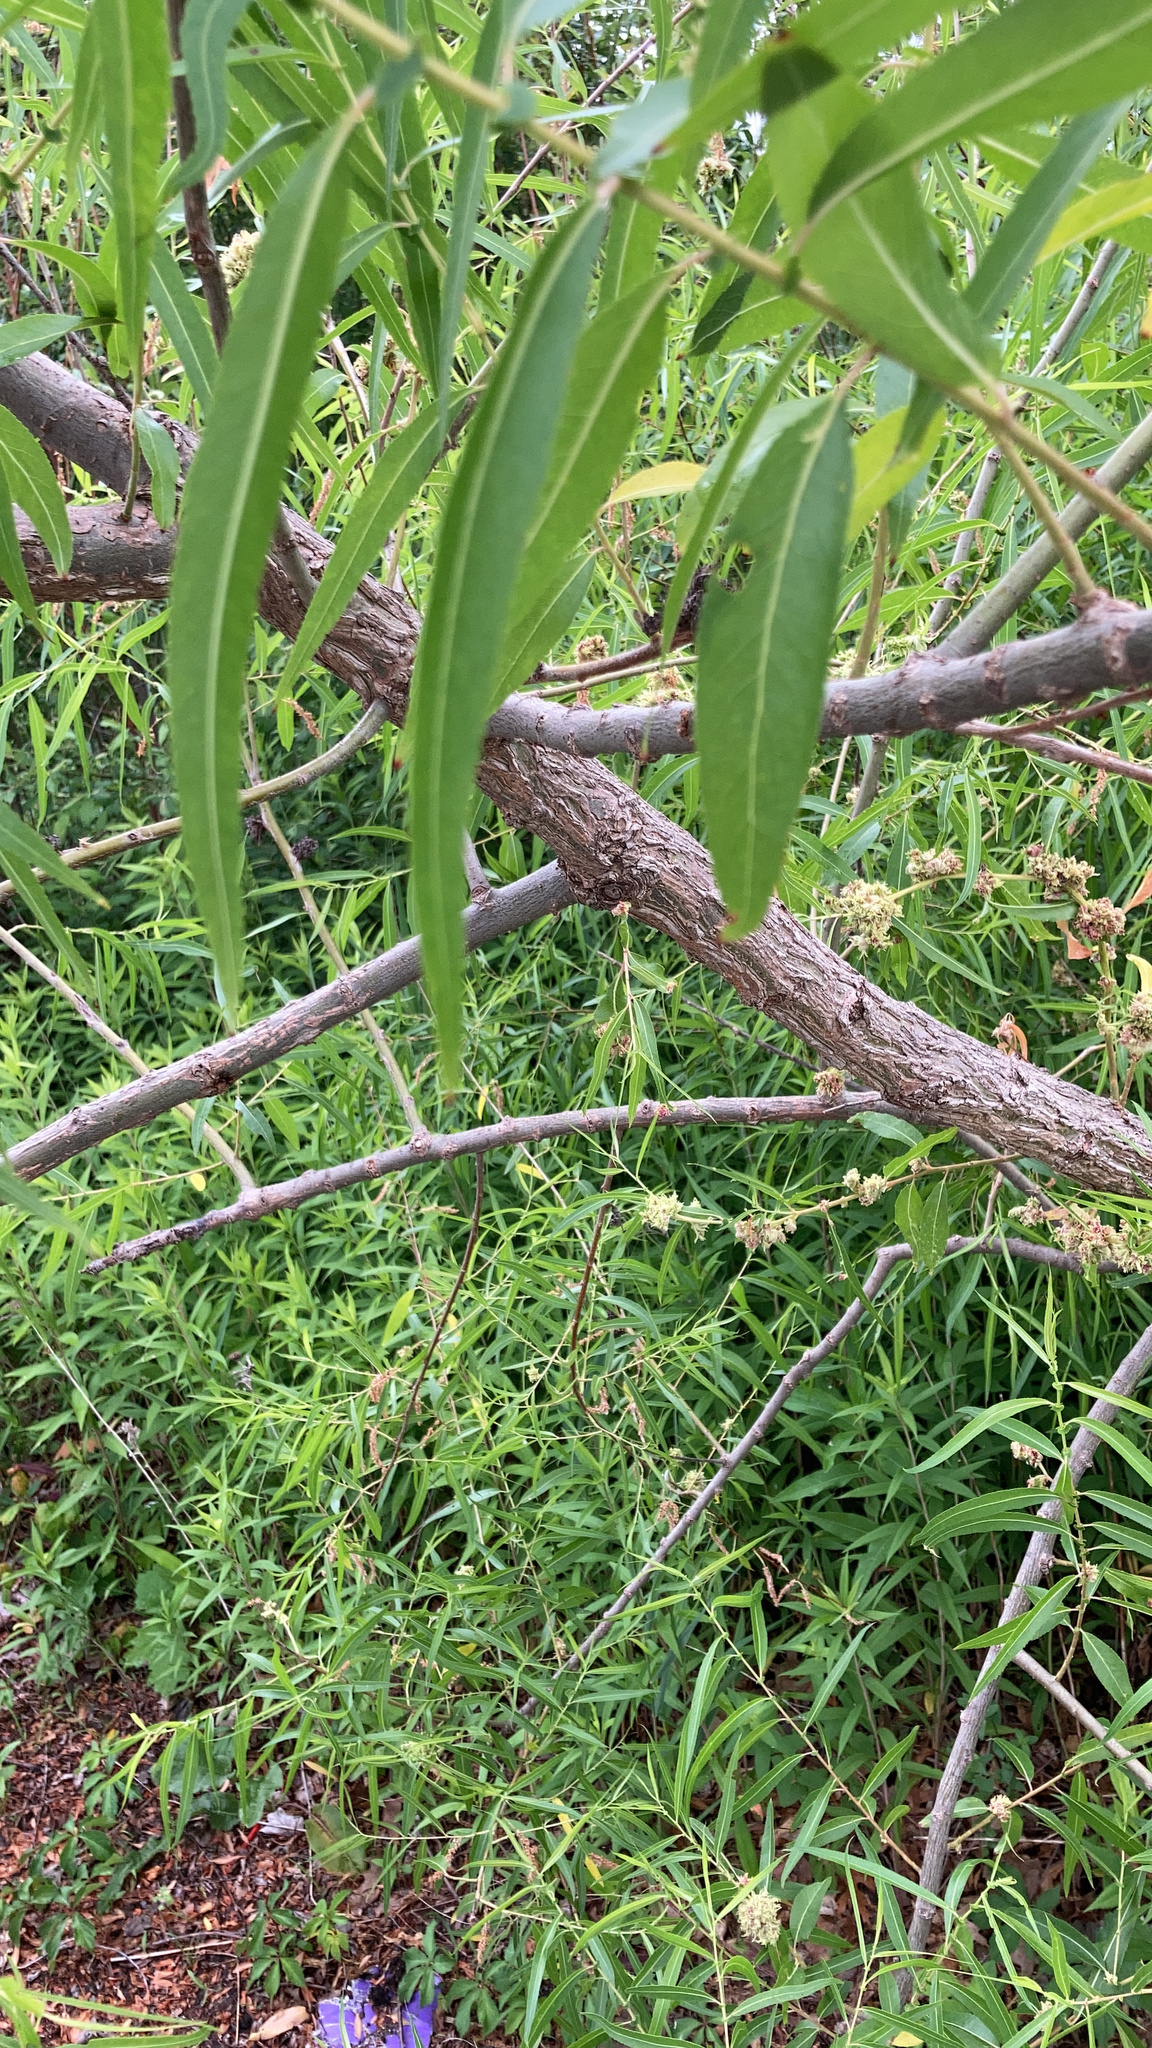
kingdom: Plantae
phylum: Tracheophyta
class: Magnoliopsida
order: Malpighiales
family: Salicaceae
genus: Salix
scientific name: Salix nigra
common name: Black willow
